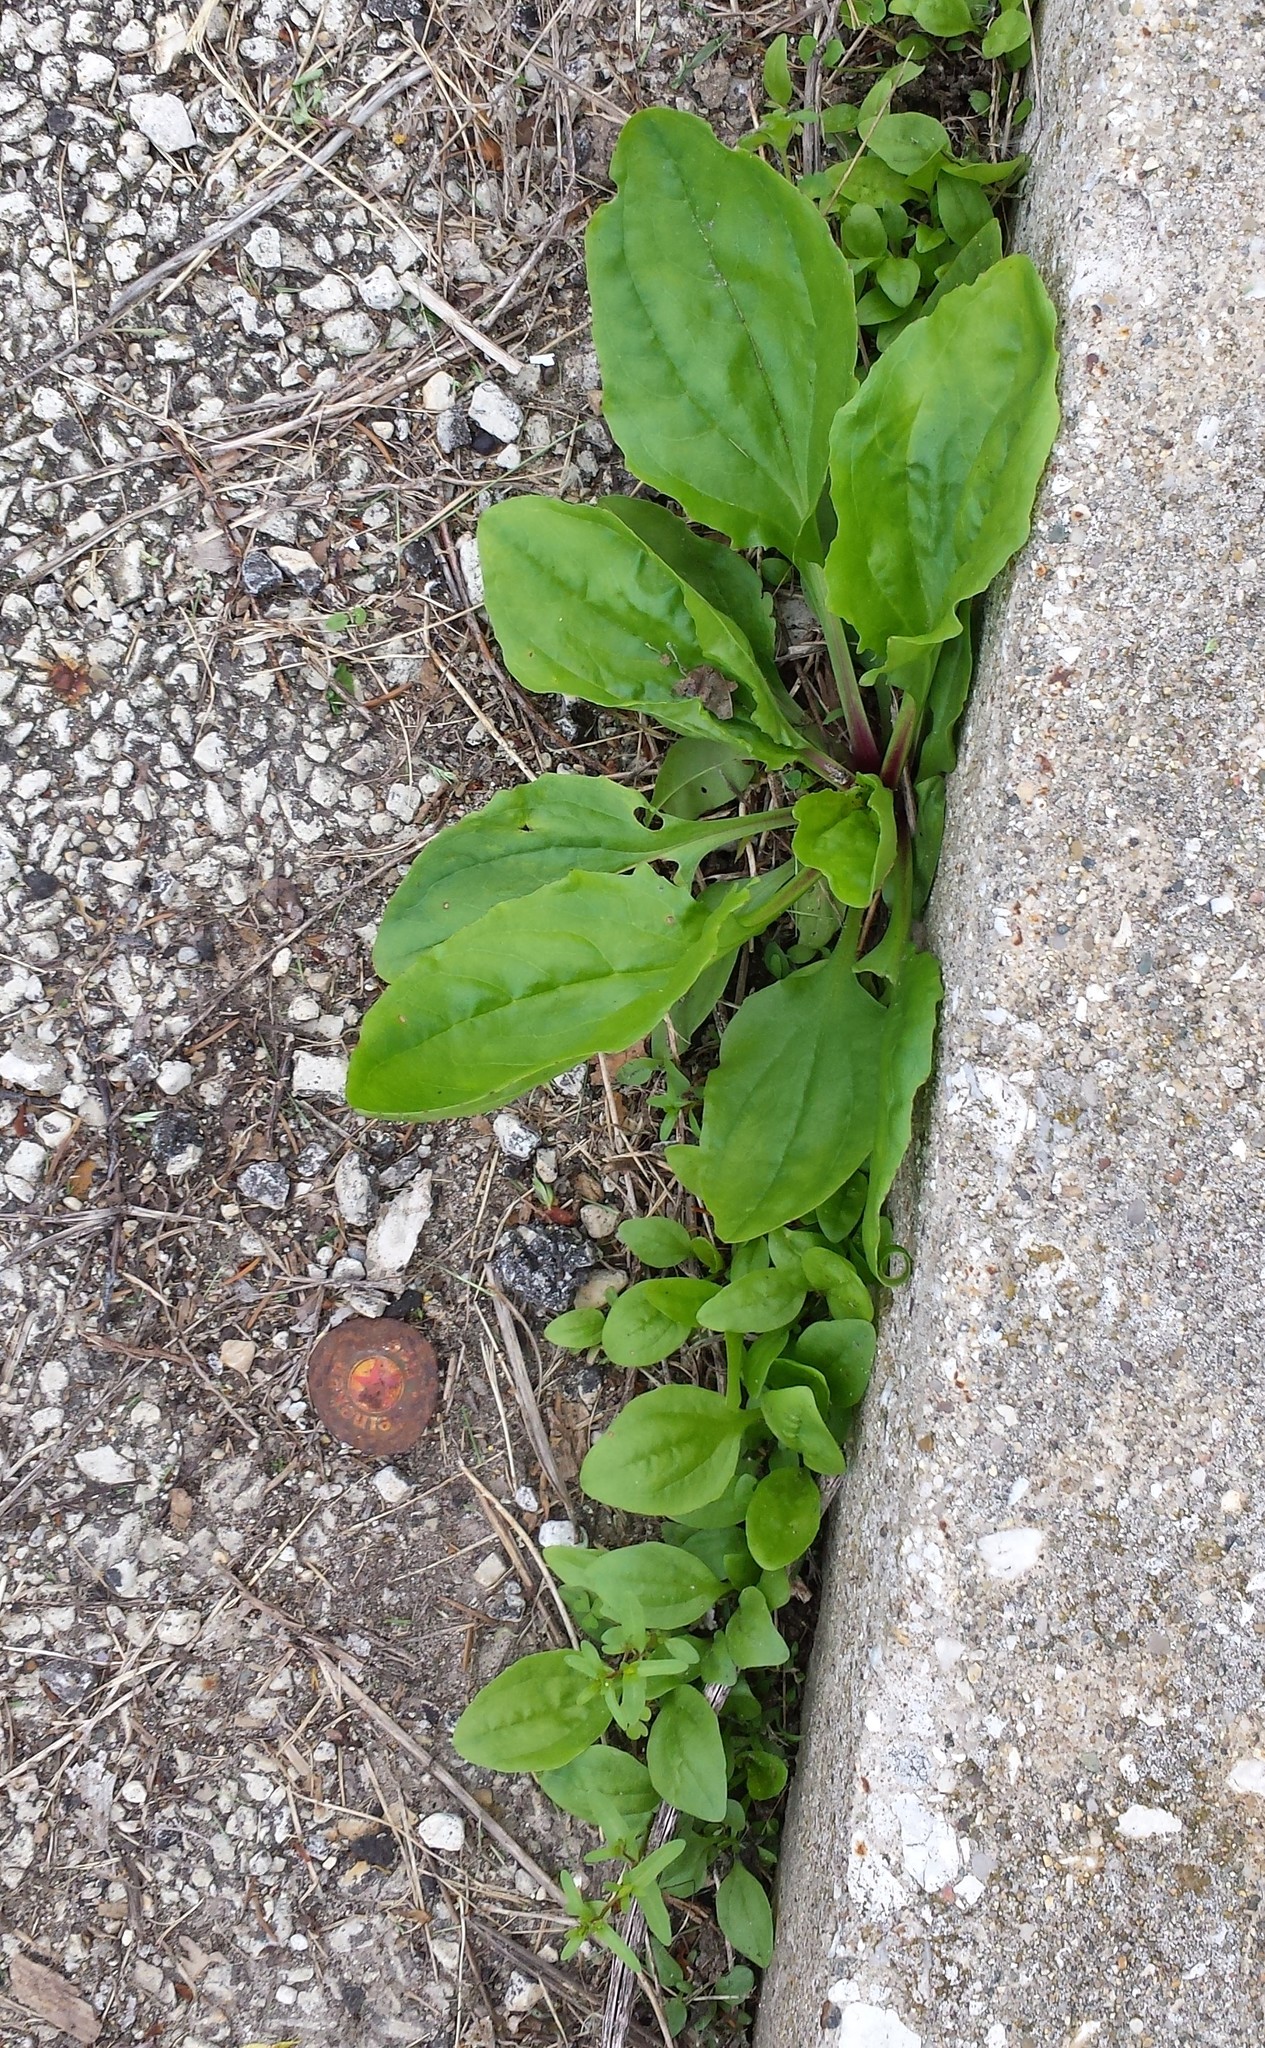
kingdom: Plantae
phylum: Tracheophyta
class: Magnoliopsida
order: Lamiales
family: Plantaginaceae
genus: Plantago
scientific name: Plantago rugelii
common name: American plantain
